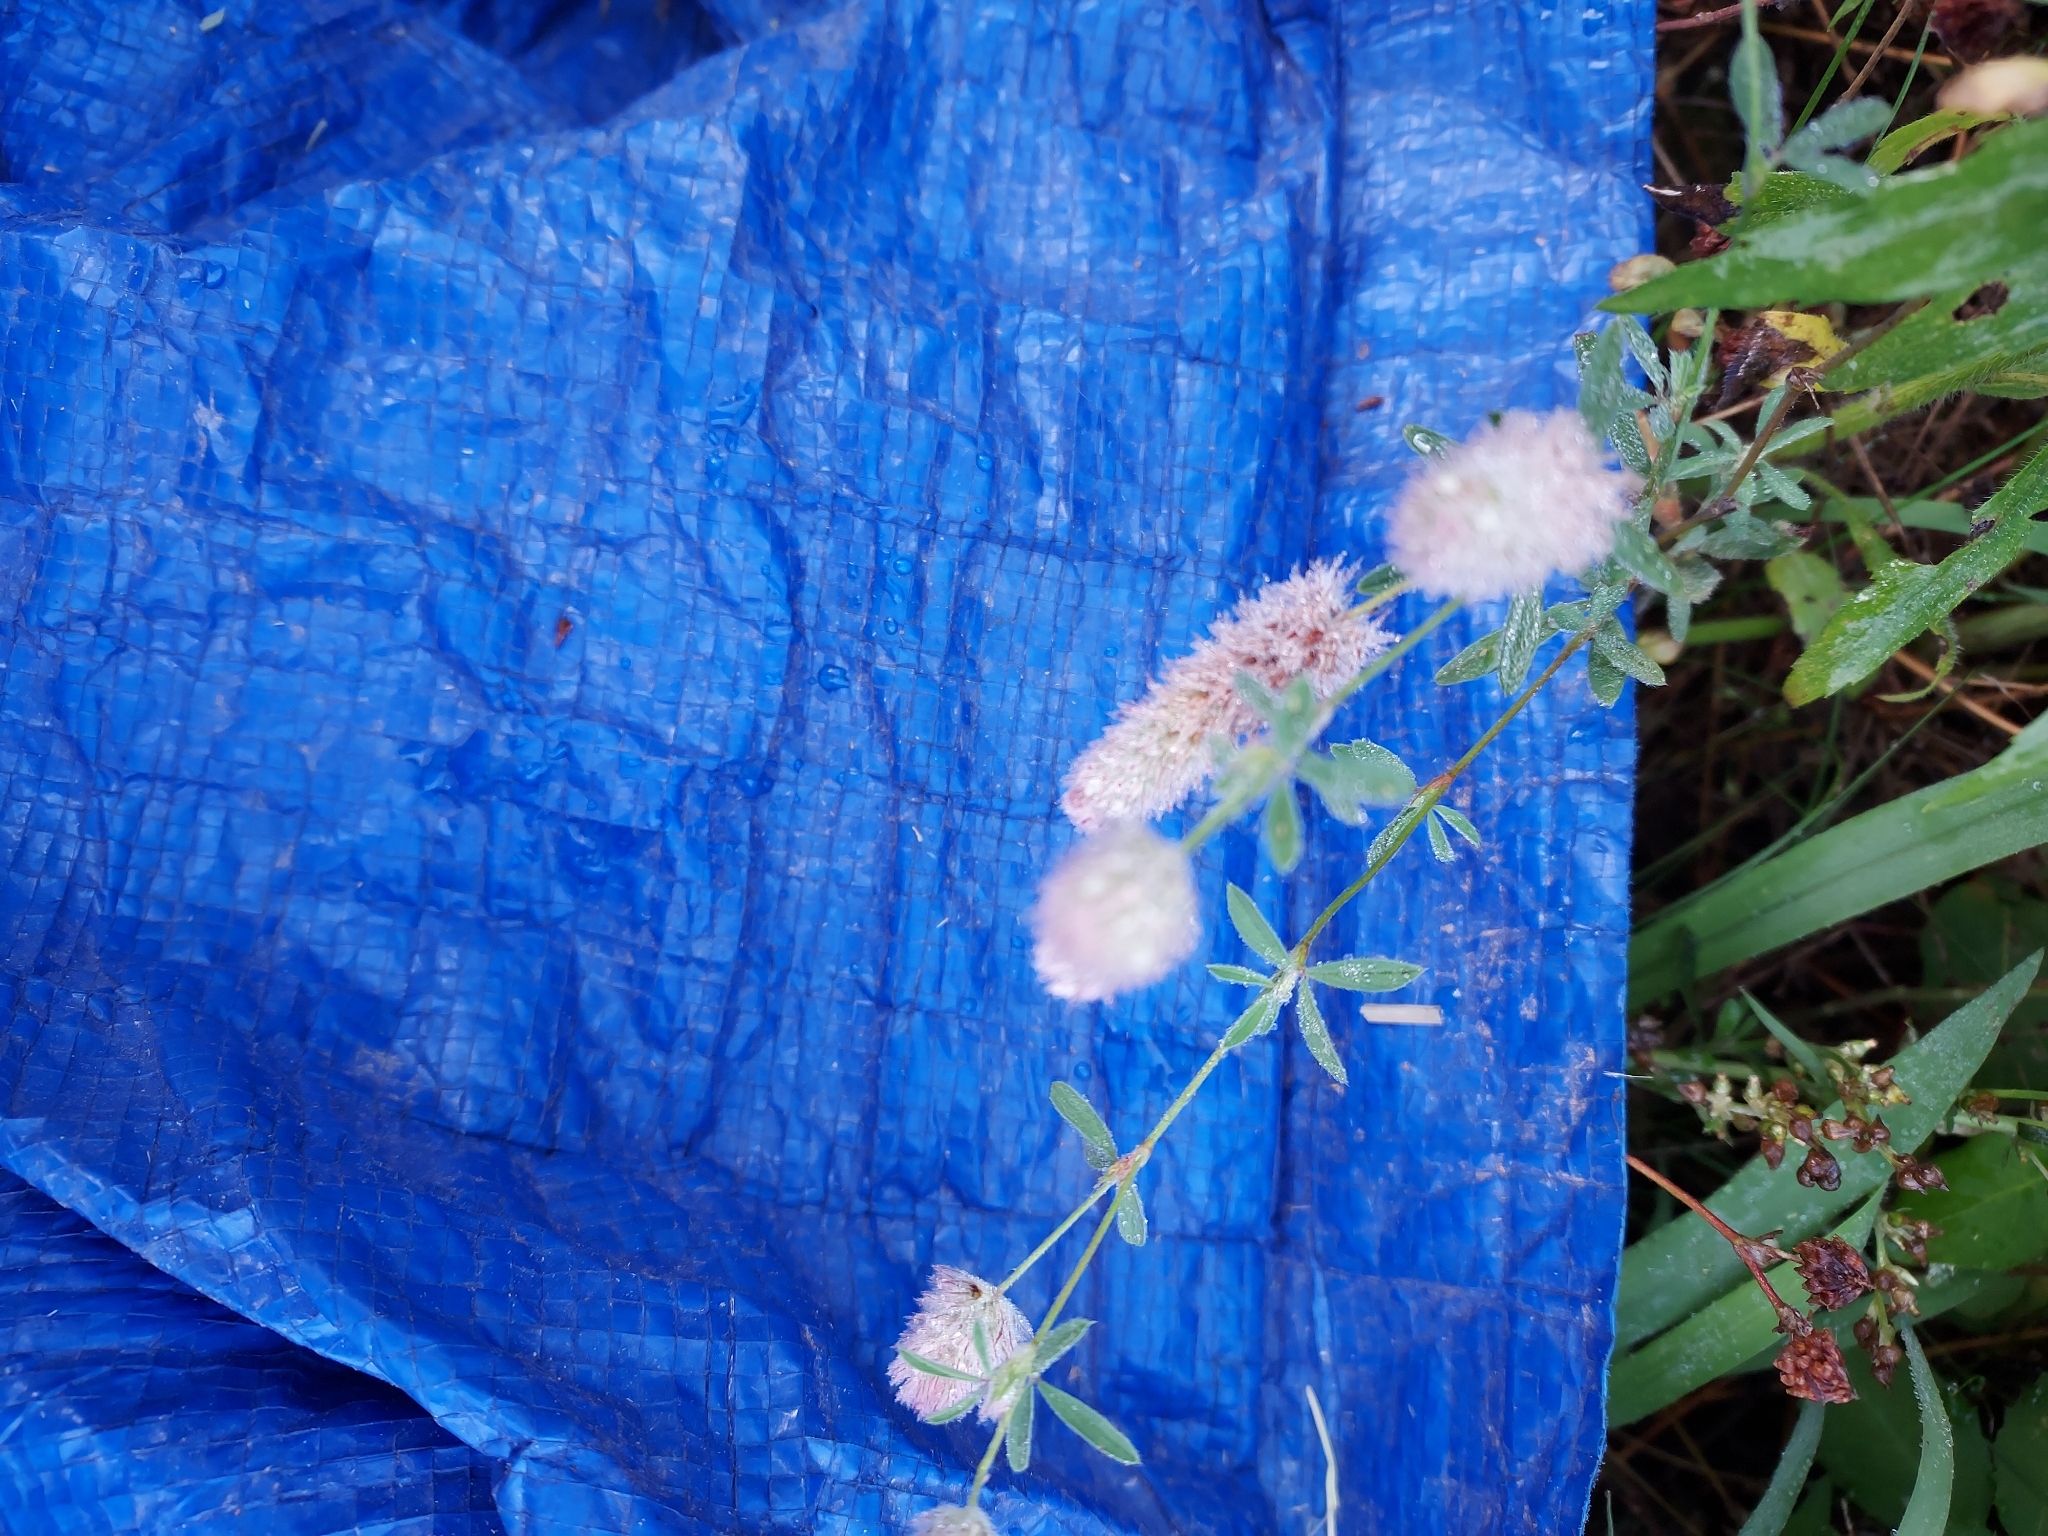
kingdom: Plantae
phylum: Tracheophyta
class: Magnoliopsida
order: Fabales
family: Fabaceae
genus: Trifolium
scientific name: Trifolium arvense
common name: Hare's-foot clover
